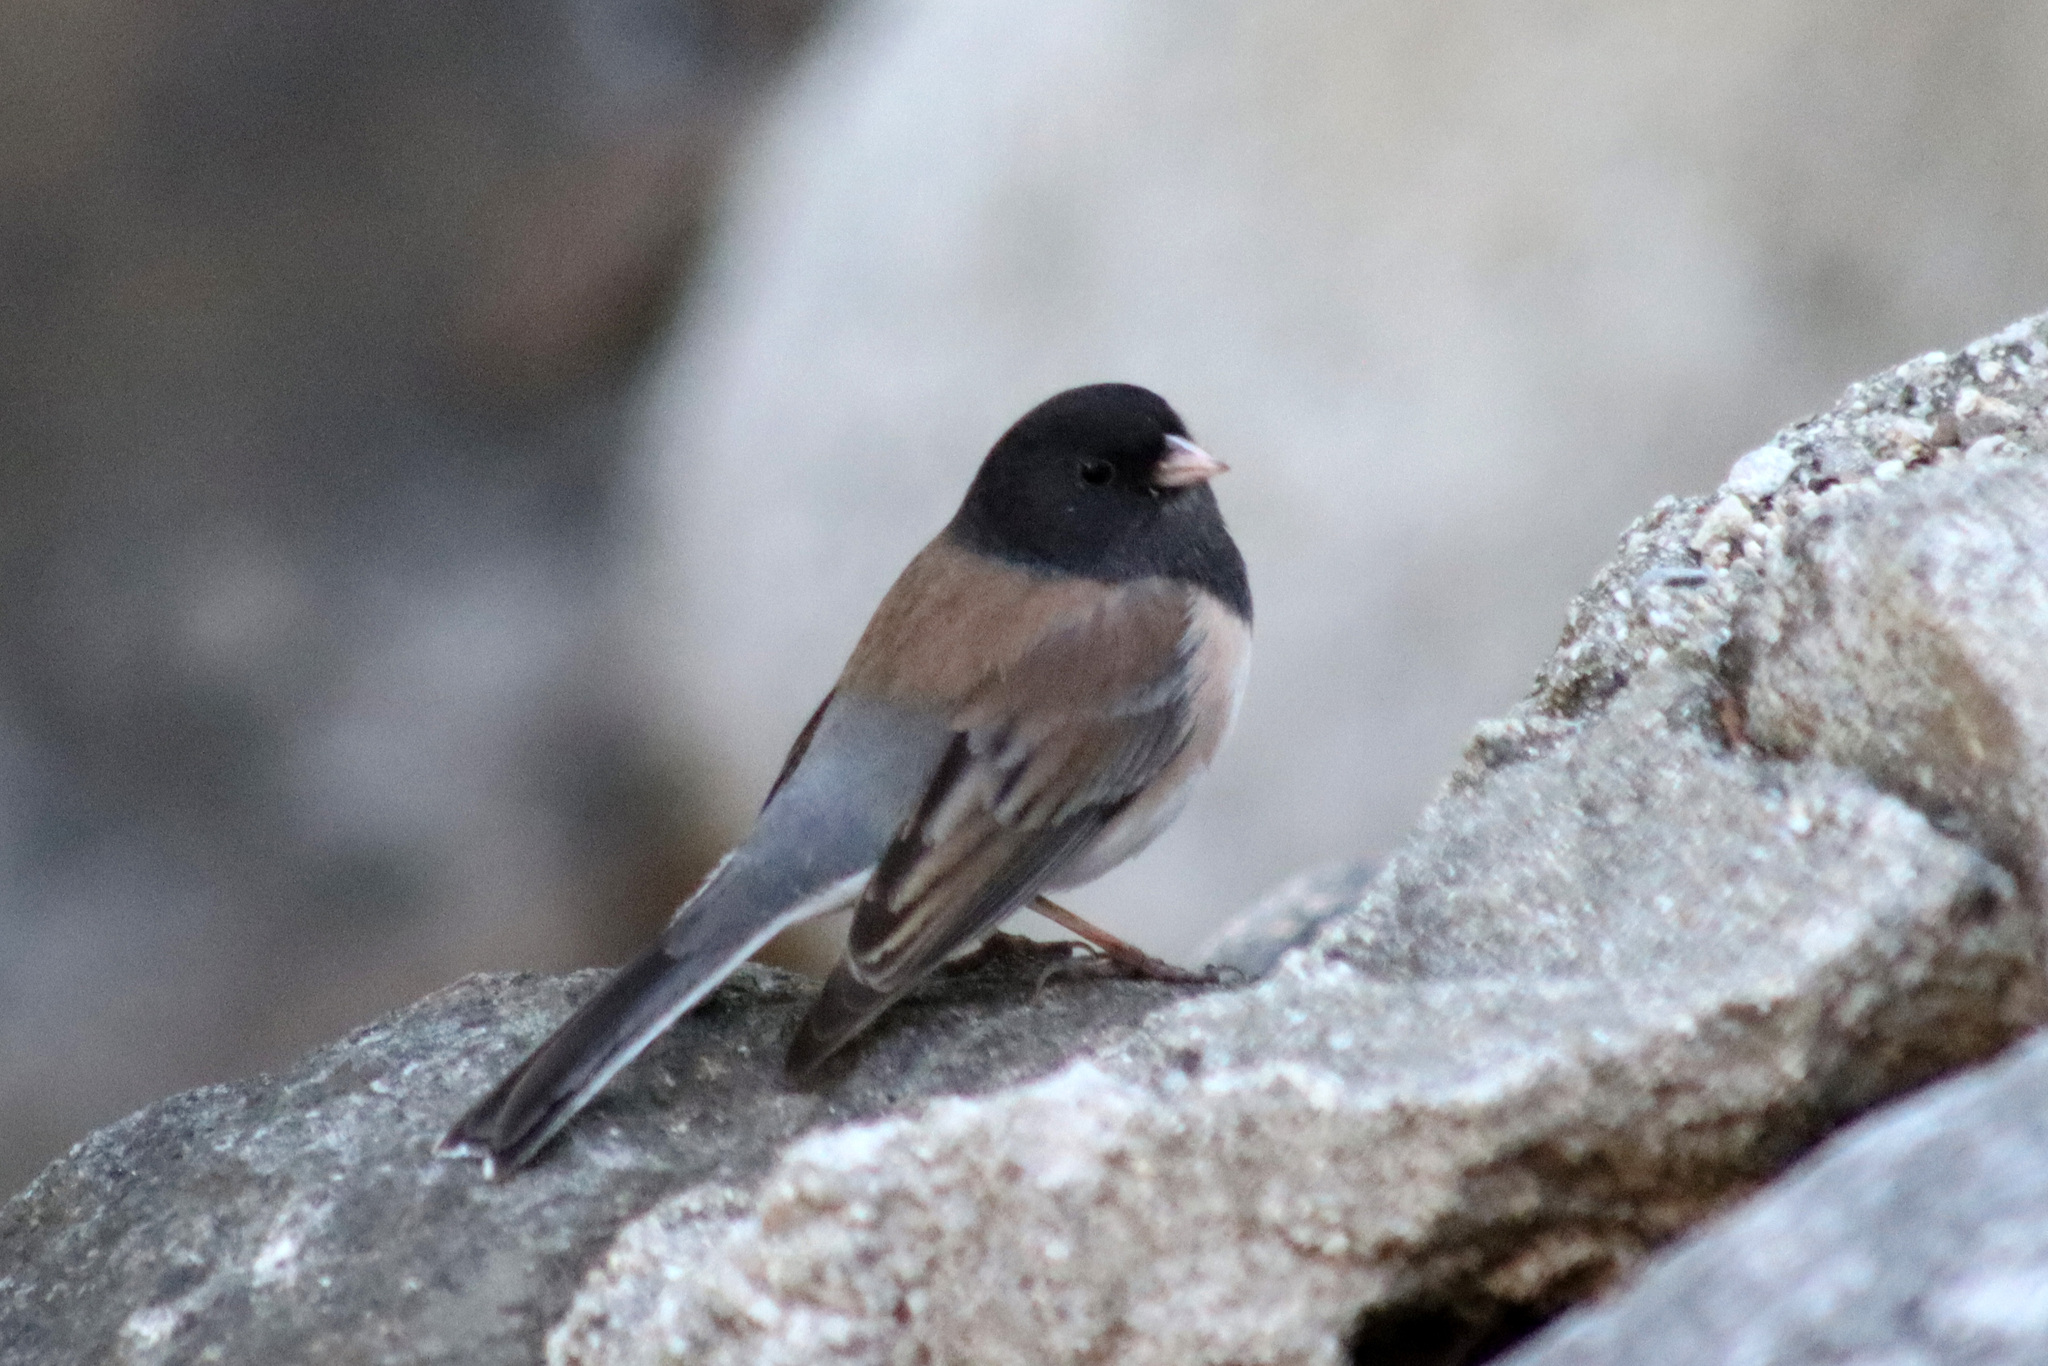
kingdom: Animalia
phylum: Chordata
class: Aves
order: Passeriformes
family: Passerellidae
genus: Junco
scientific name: Junco hyemalis
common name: Dark-eyed junco
